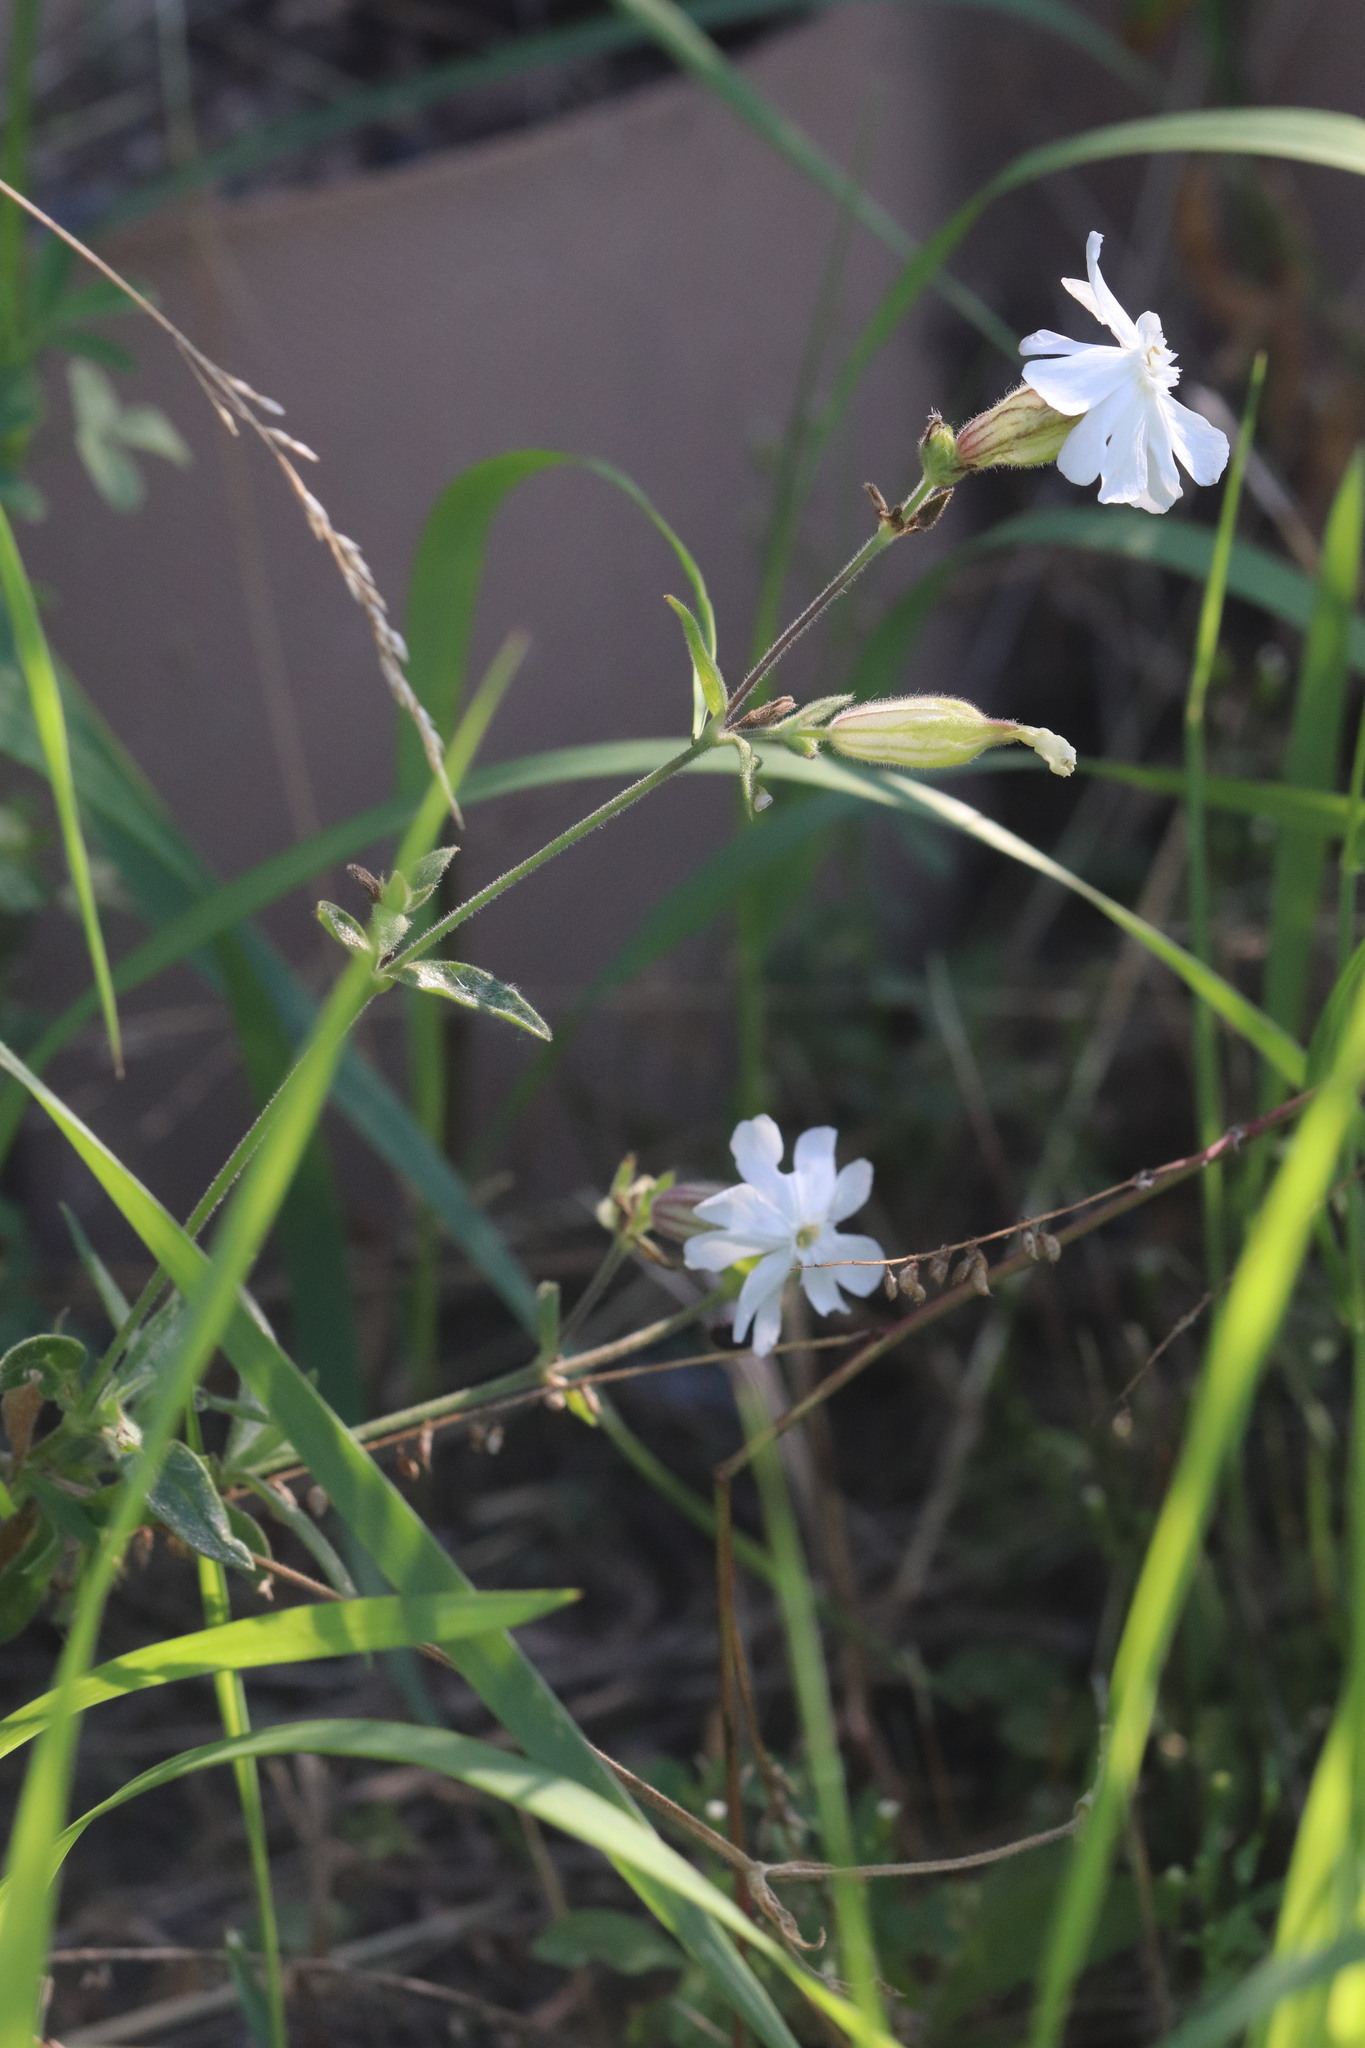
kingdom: Plantae
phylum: Tracheophyta
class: Magnoliopsida
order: Caryophyllales
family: Caryophyllaceae
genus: Silene
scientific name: Silene latifolia
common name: White campion
